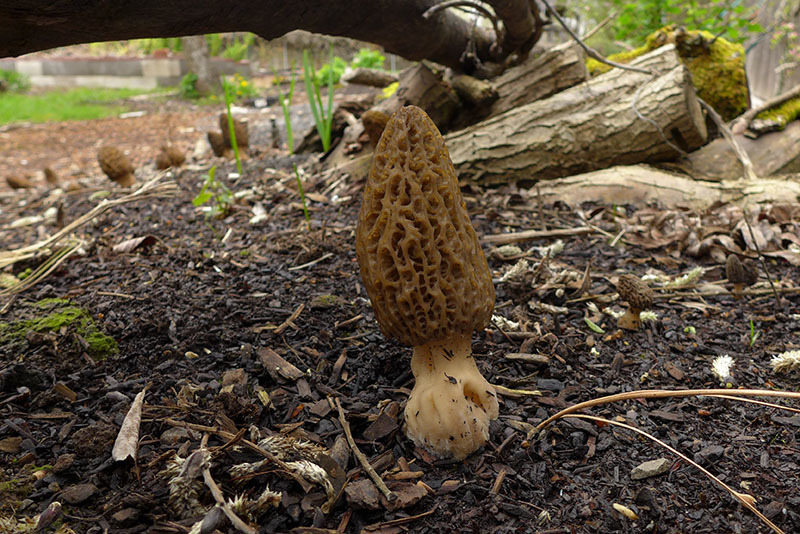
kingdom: Fungi
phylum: Ascomycota
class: Pezizomycetes
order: Pezizales
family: Morchellaceae
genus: Morchella
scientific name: Morchella importuna
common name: Landscaping black morel
